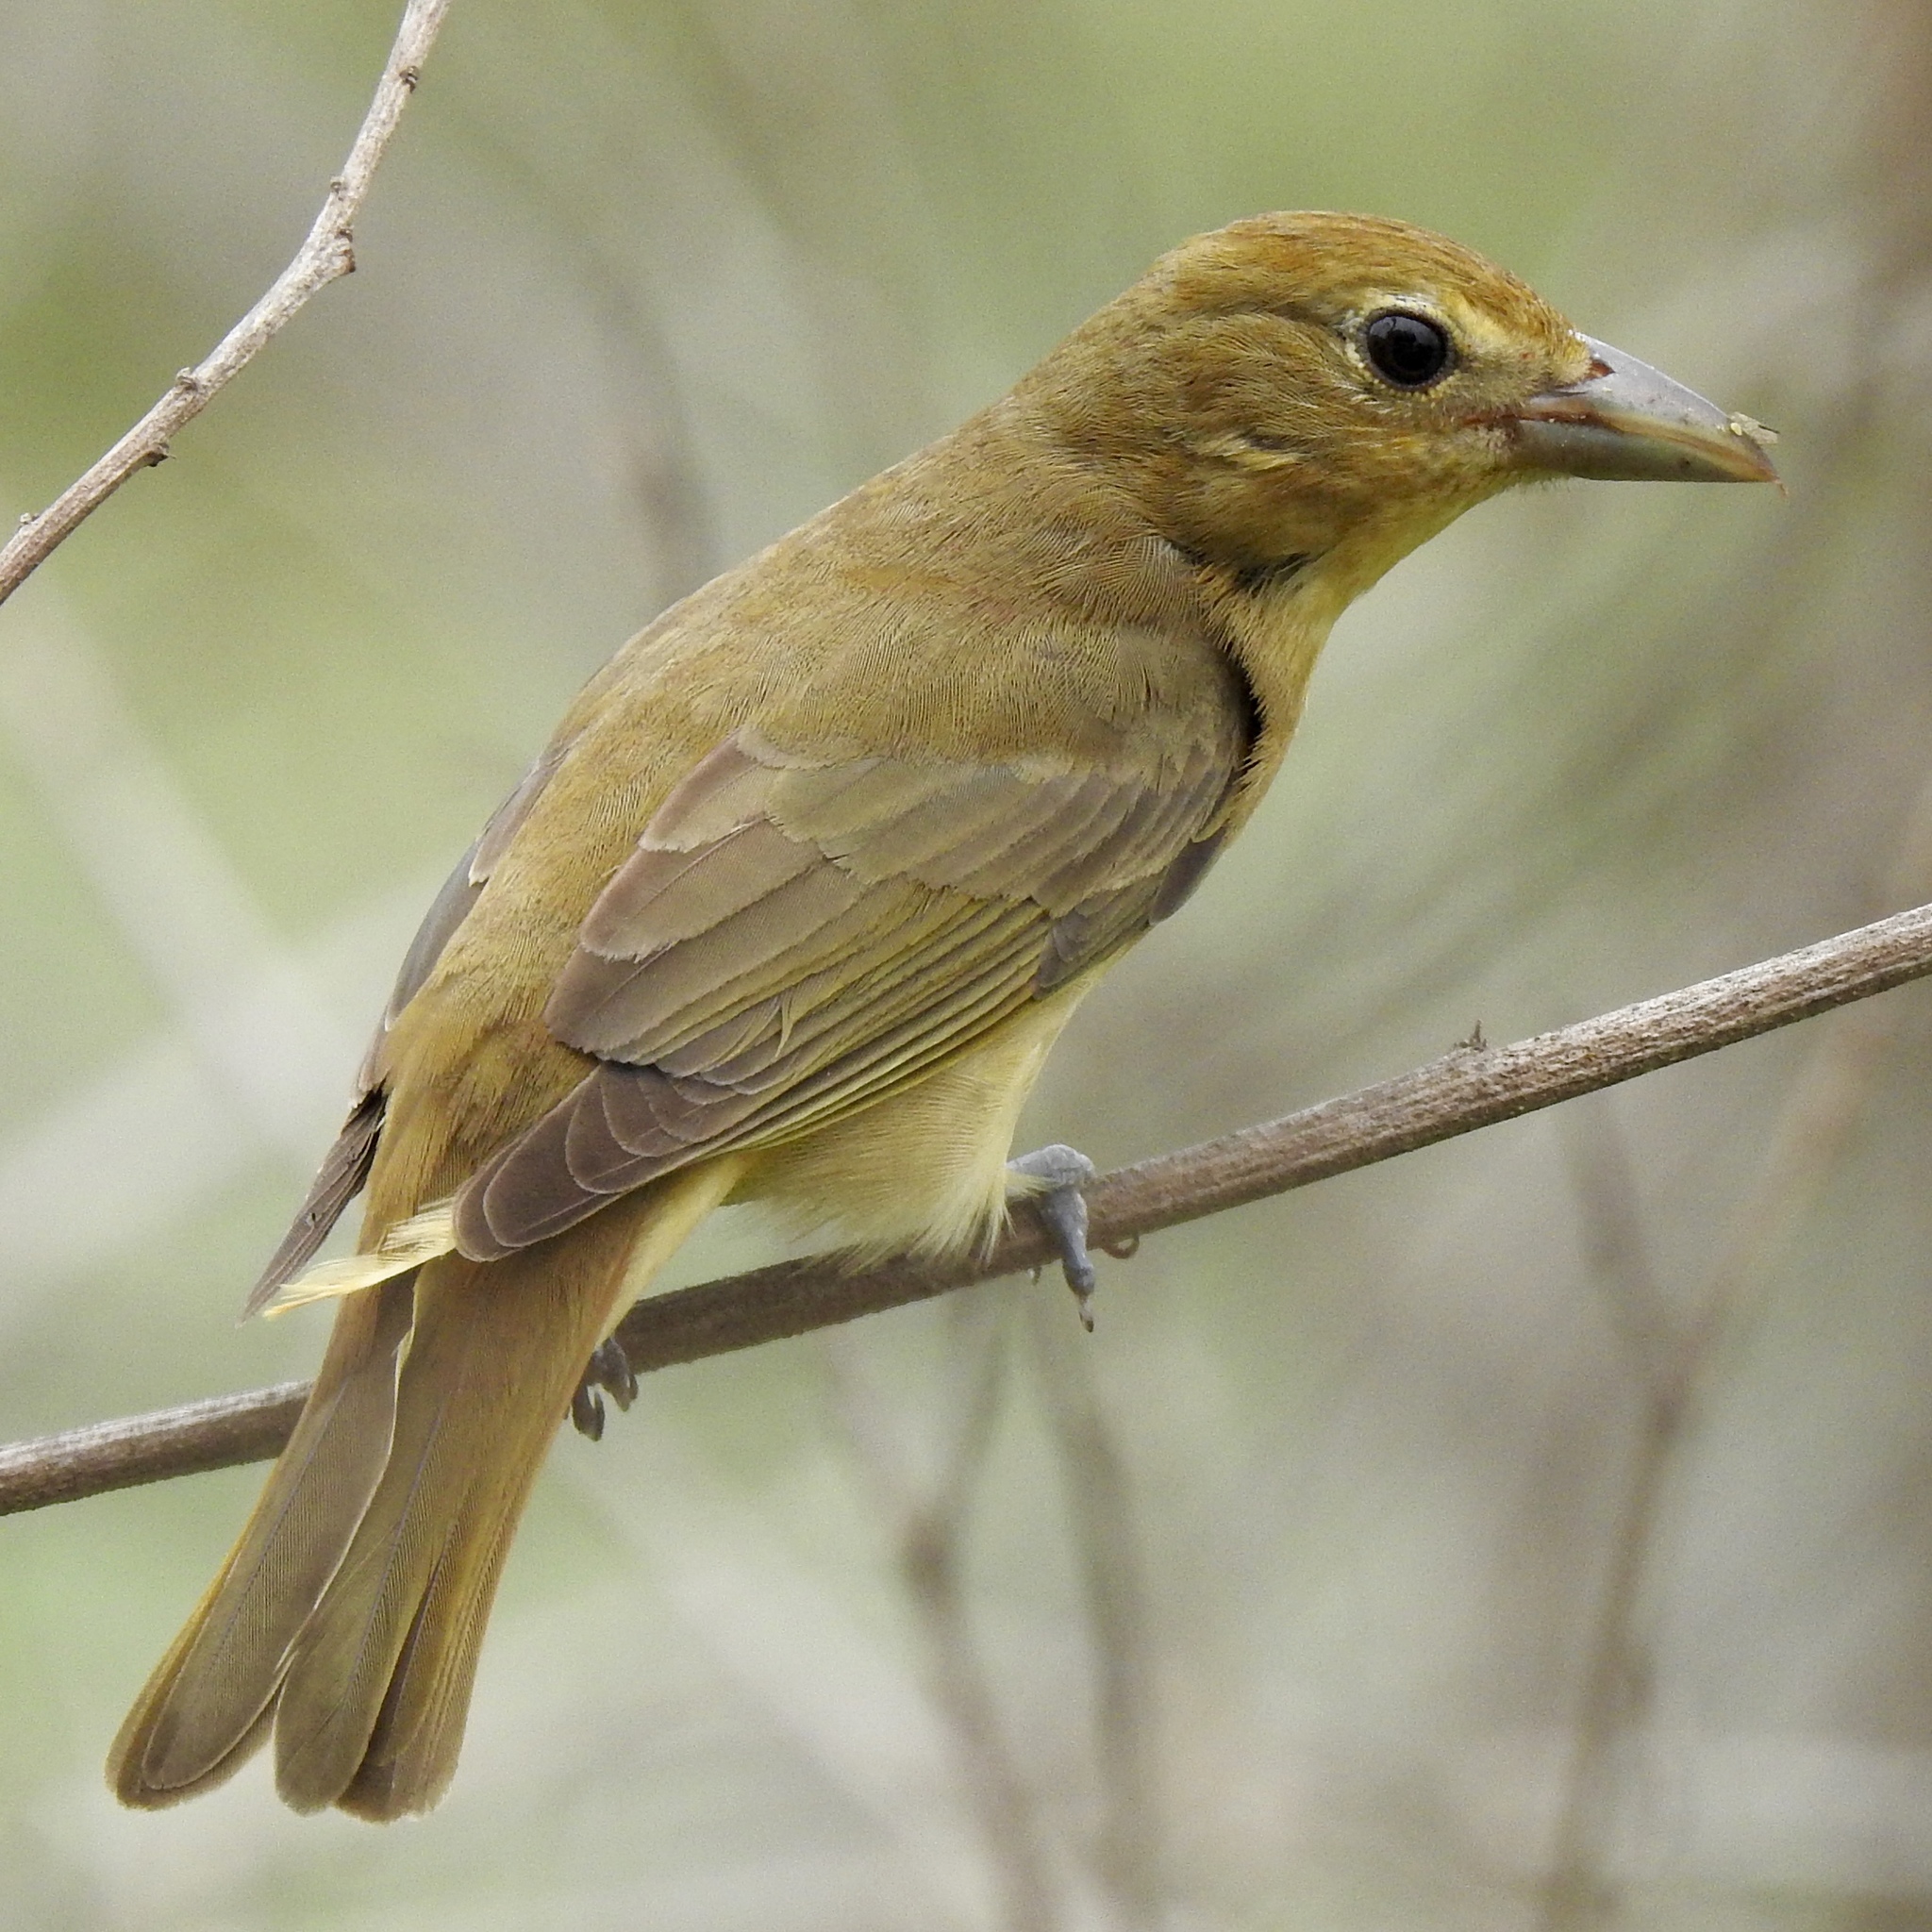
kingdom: Animalia
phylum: Chordata
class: Aves
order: Passeriformes
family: Cardinalidae
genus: Piranga
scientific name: Piranga rubra
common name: Summer tanager
